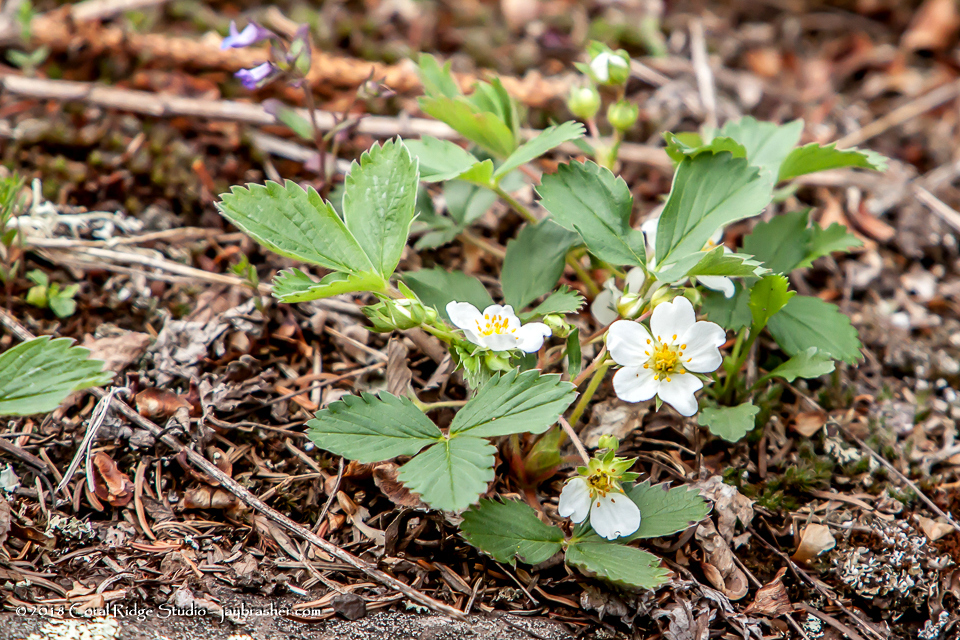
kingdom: Plantae
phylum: Tracheophyta
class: Magnoliopsida
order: Rosales
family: Rosaceae
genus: Fragaria
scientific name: Fragaria virginiana
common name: Thickleaved wild strawberry
